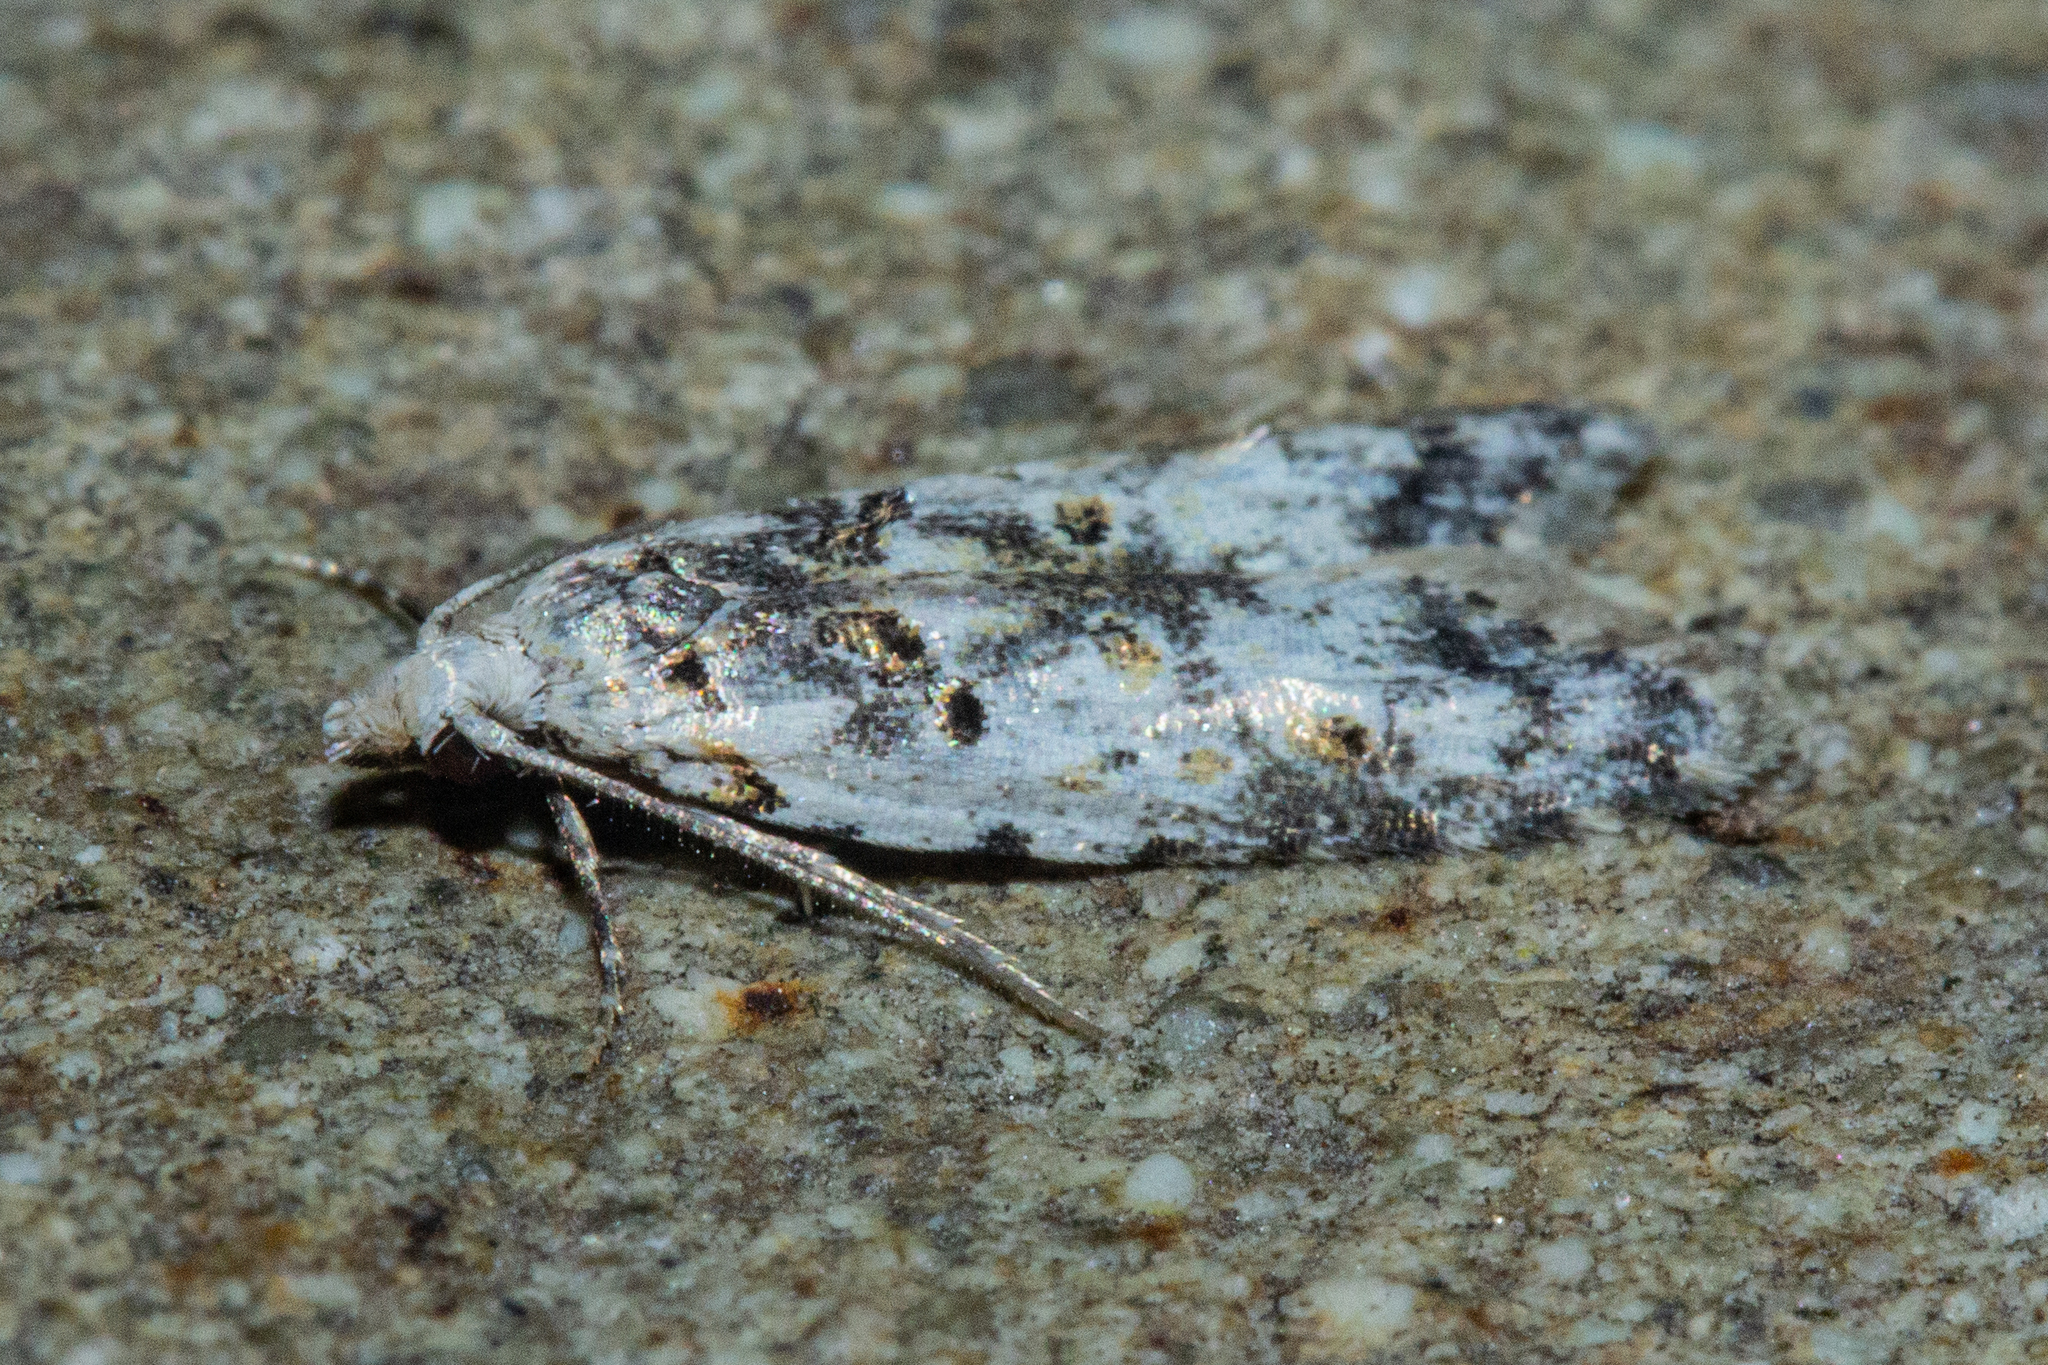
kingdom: Animalia
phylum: Arthropoda
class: Insecta
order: Lepidoptera
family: Carposinidae
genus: Carposina
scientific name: Carposina
